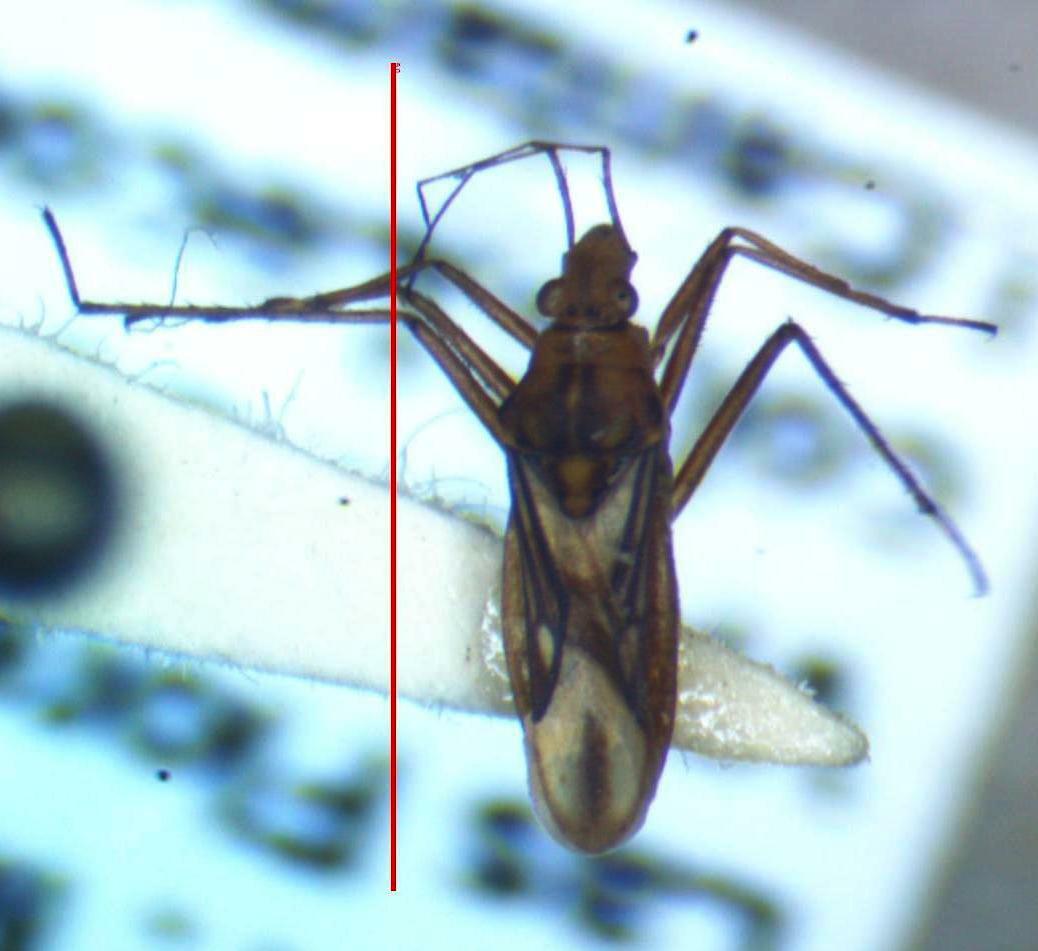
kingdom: Animalia
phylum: Arthropoda
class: Insecta
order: Hemiptera
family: Mesoveliidae
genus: Mesovelia
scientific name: Mesovelia mulsanti
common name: Water treaders
